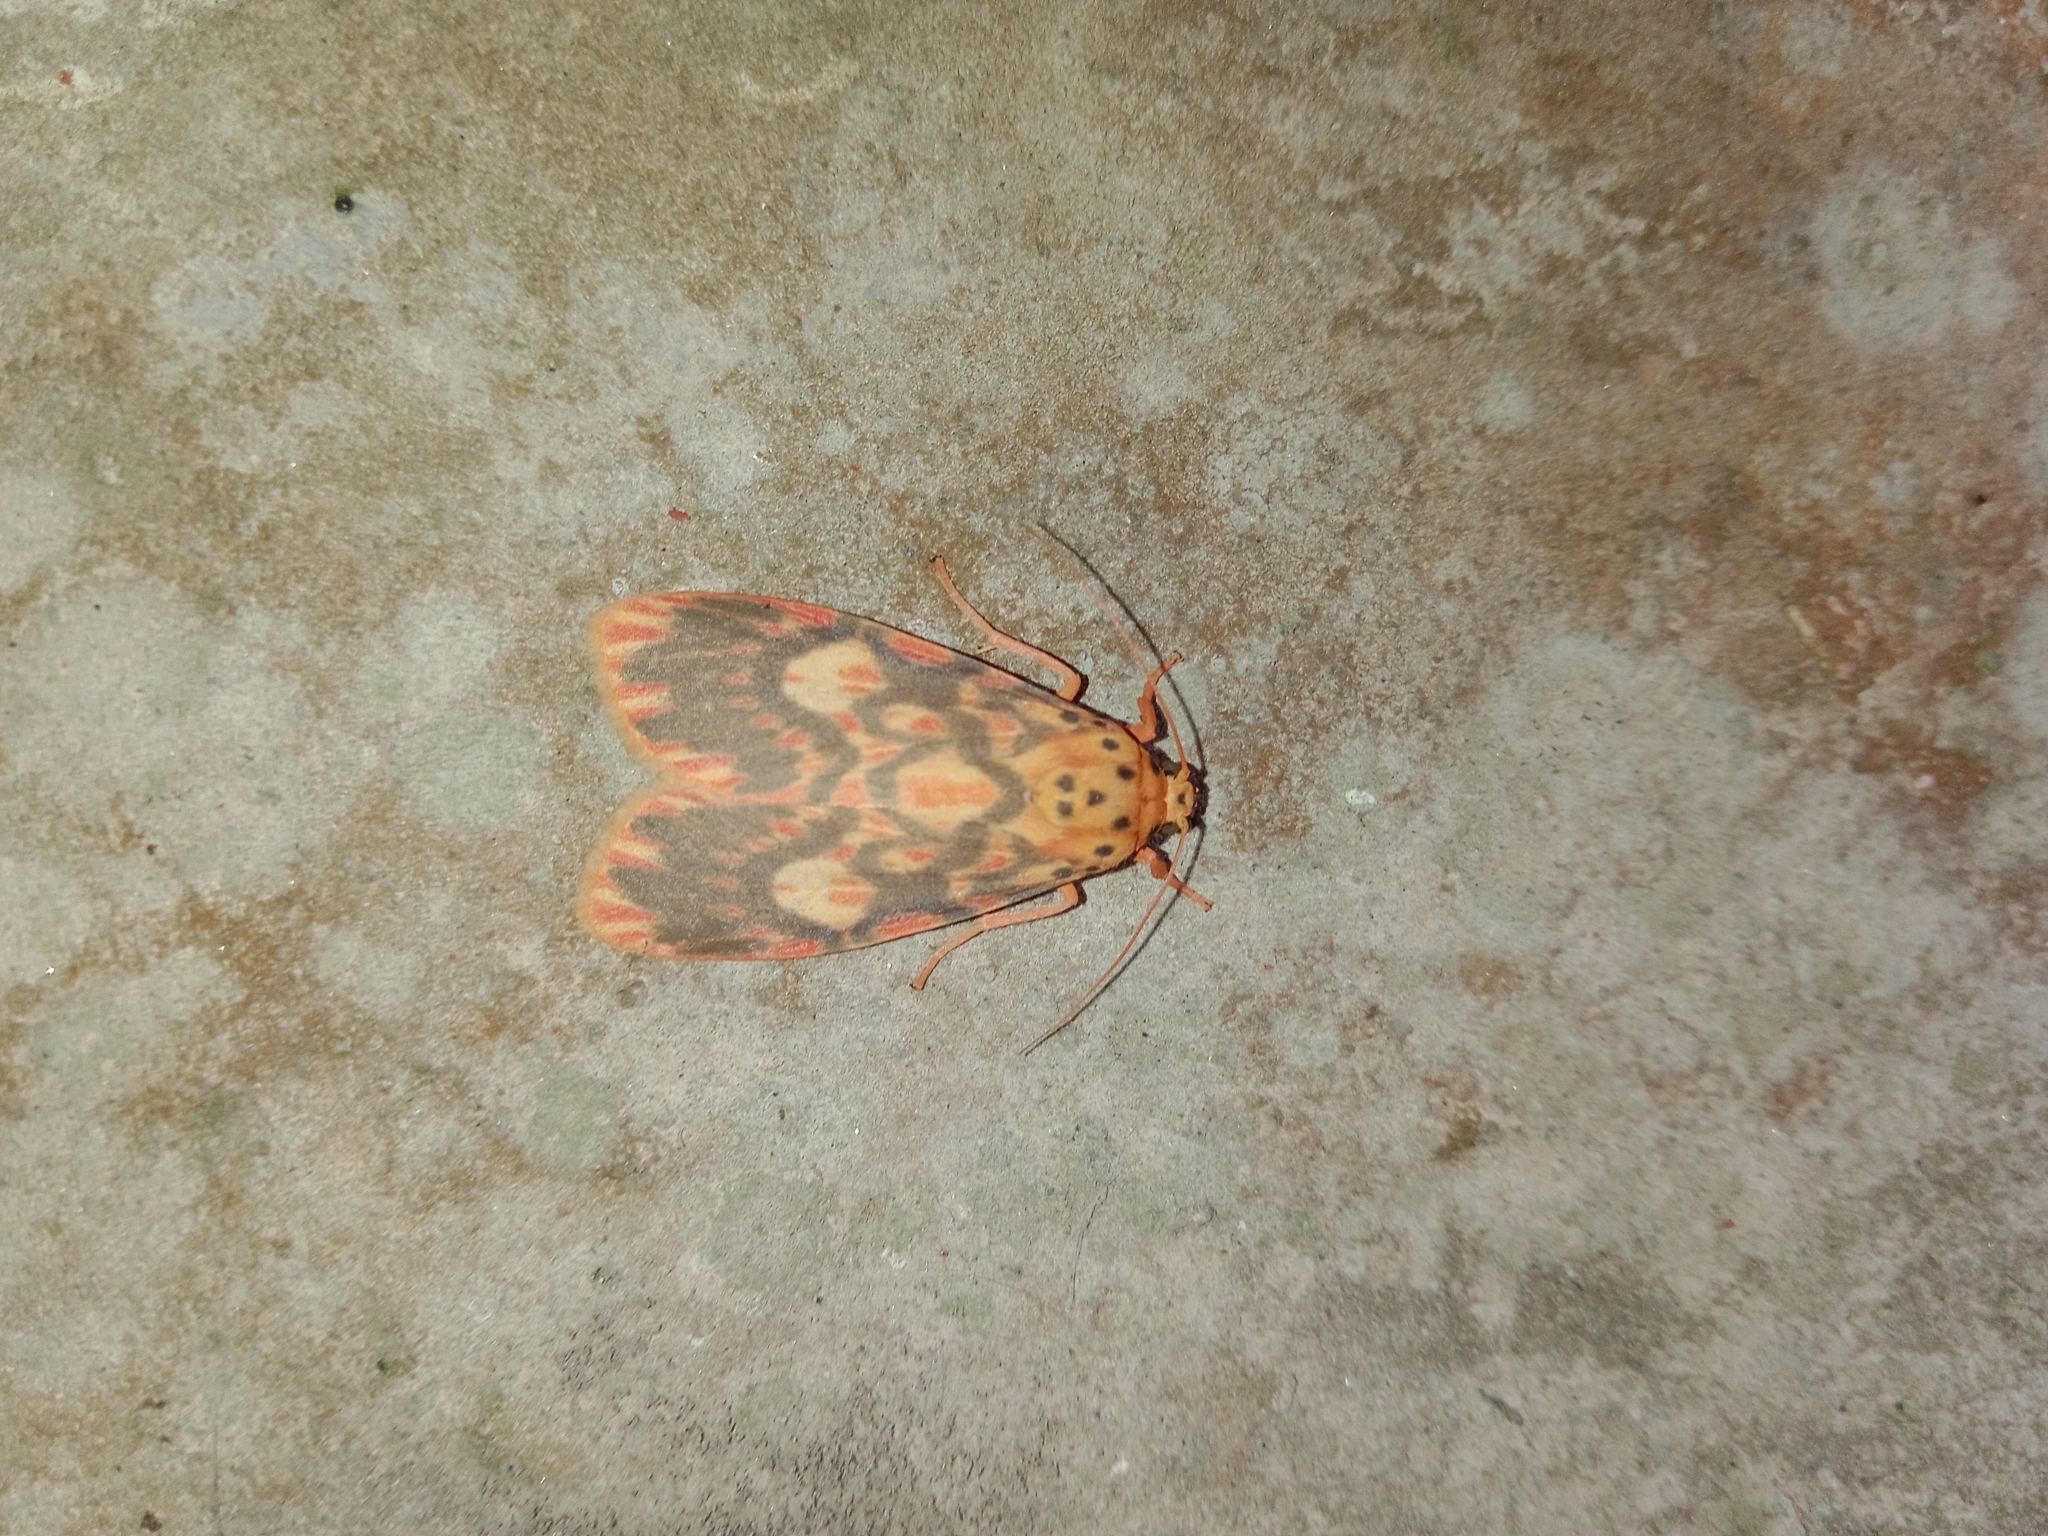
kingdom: Animalia
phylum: Arthropoda
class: Insecta
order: Lepidoptera
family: Erebidae
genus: Ammatho
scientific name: Ammatho cuneonotatus
